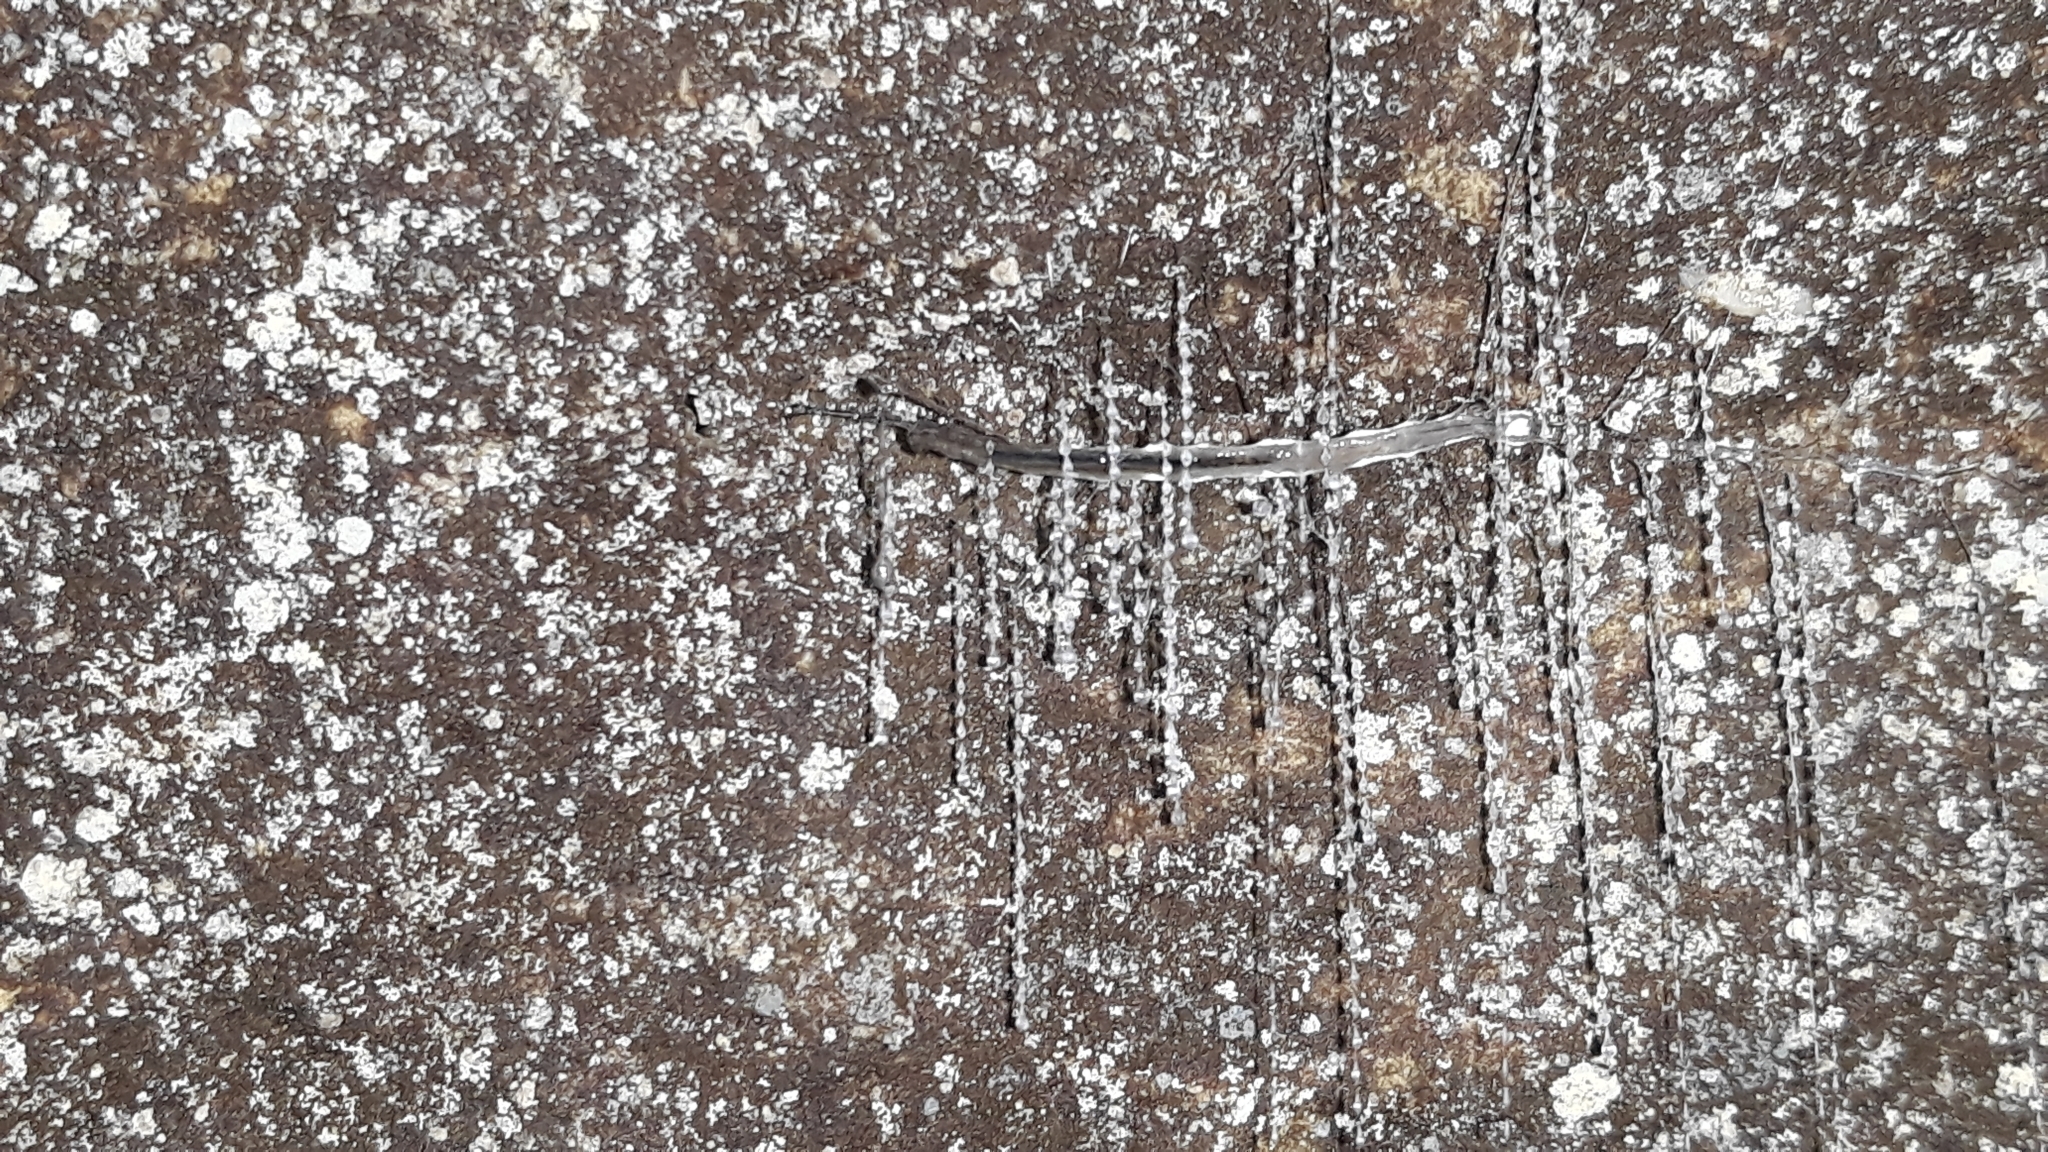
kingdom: Animalia
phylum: Arthropoda
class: Insecta
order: Diptera
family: Keroplatidae
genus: Arachnocampa
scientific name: Arachnocampa luminosa
